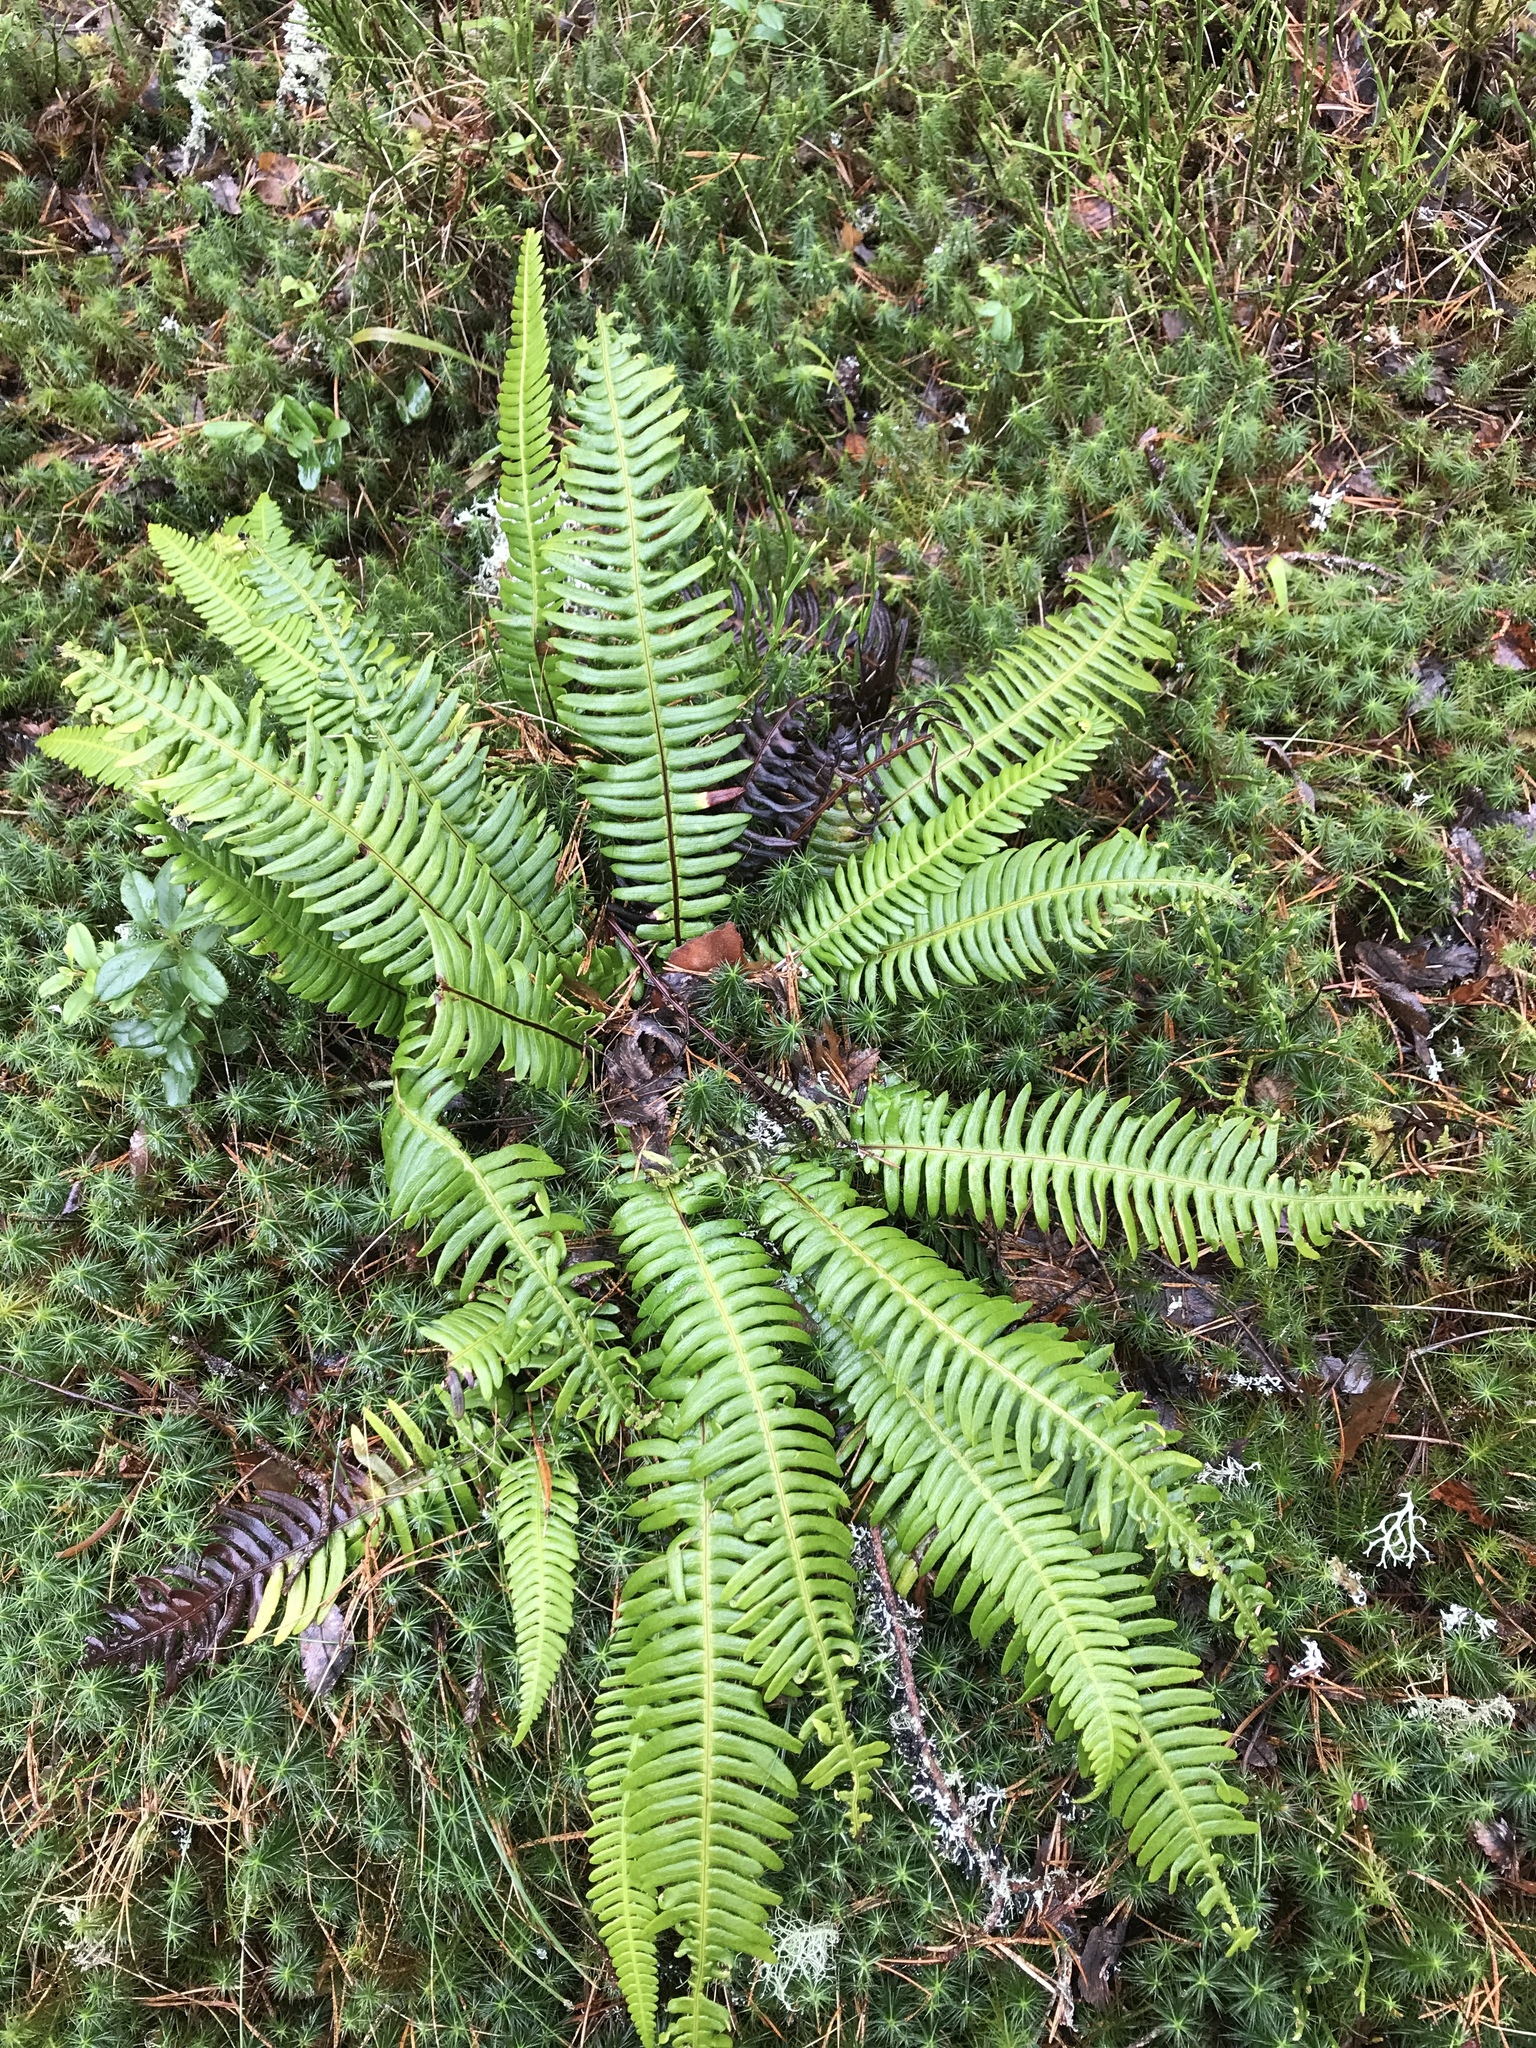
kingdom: Plantae
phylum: Tracheophyta
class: Polypodiopsida
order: Polypodiales
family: Blechnaceae
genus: Struthiopteris
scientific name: Struthiopteris spicant
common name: Deer fern
